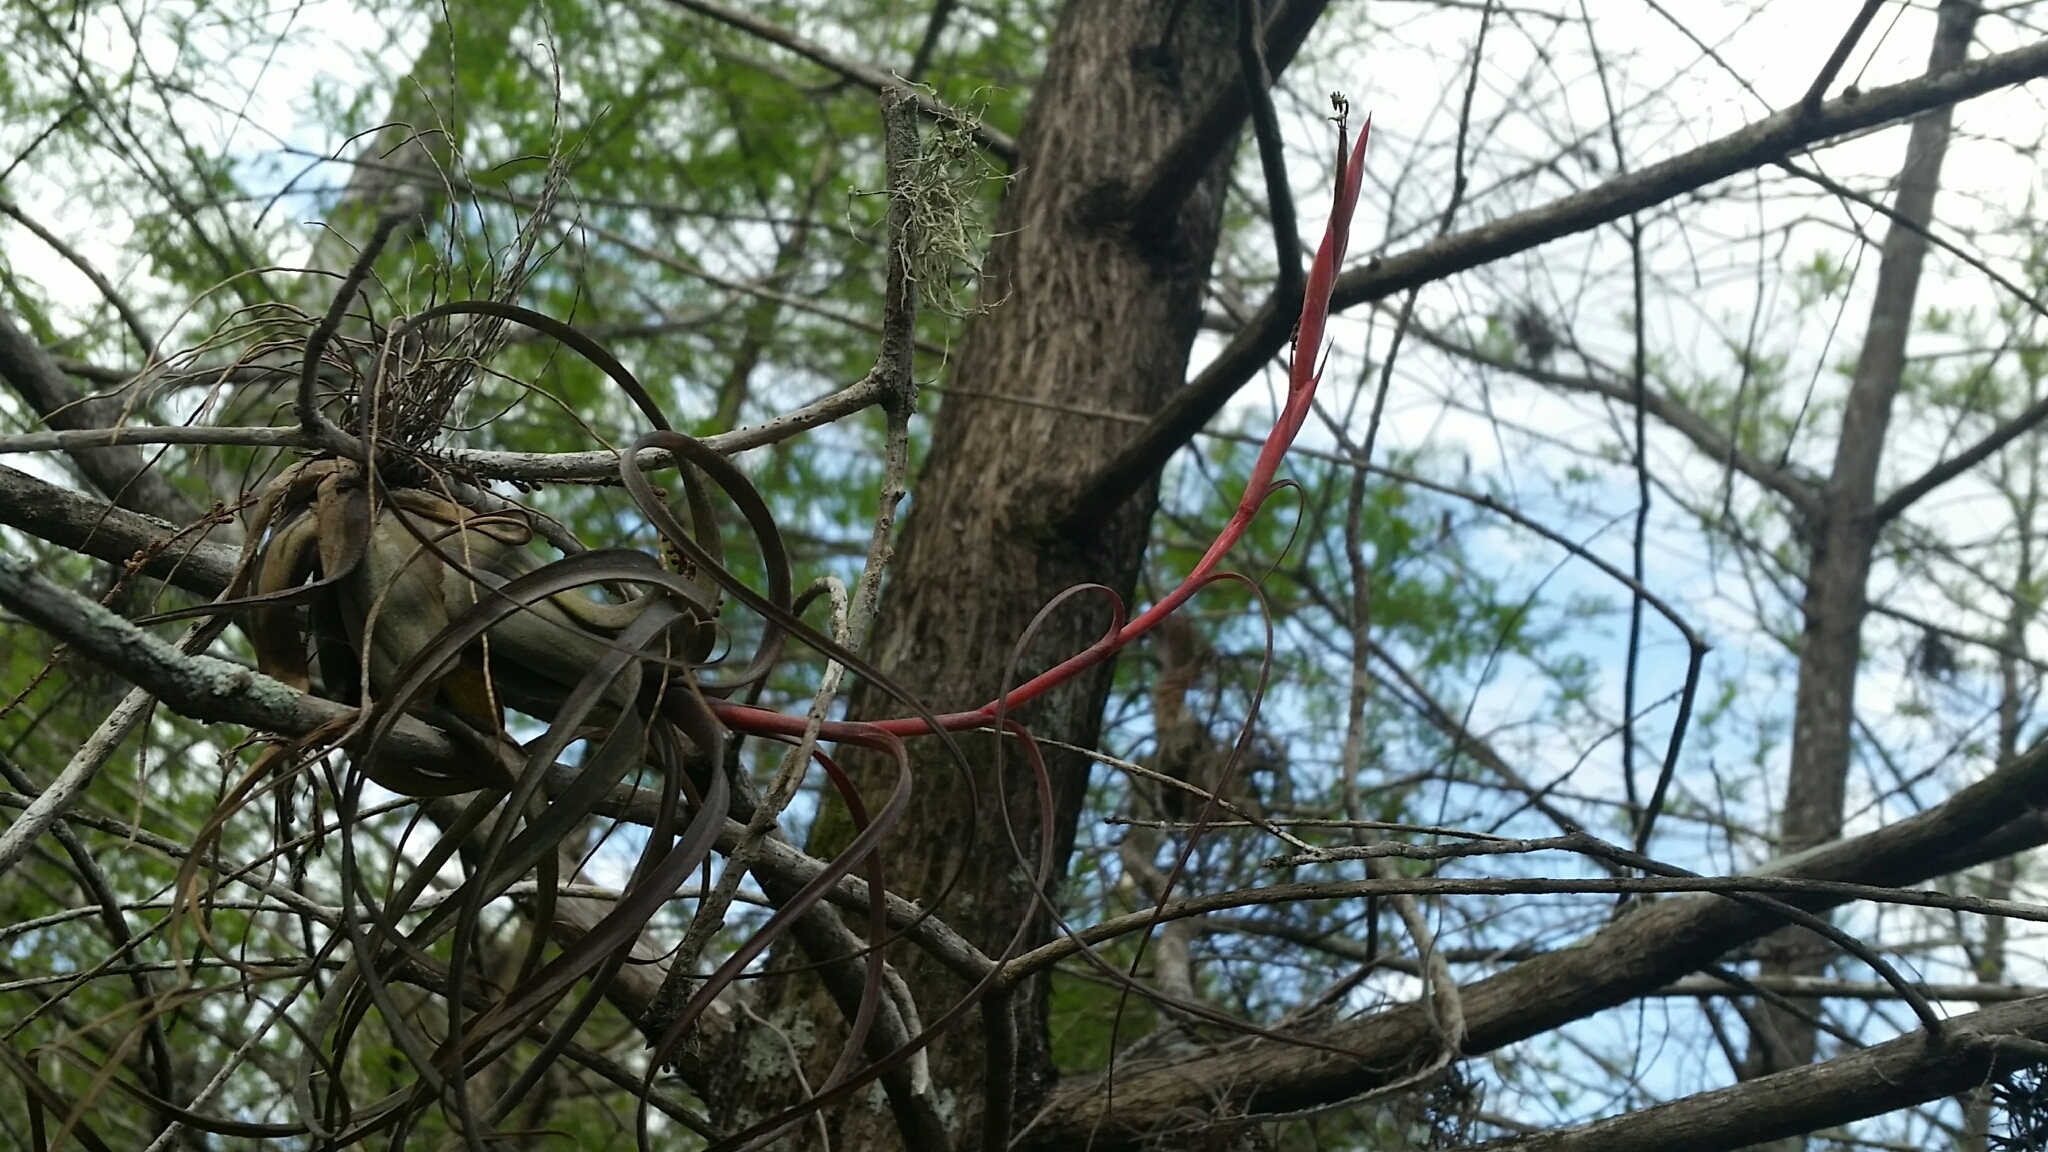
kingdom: Plantae
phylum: Tracheophyta
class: Liliopsida
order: Poales
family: Bromeliaceae
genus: Tillandsia
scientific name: Tillandsia balbisiana
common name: Northern needleleaf
